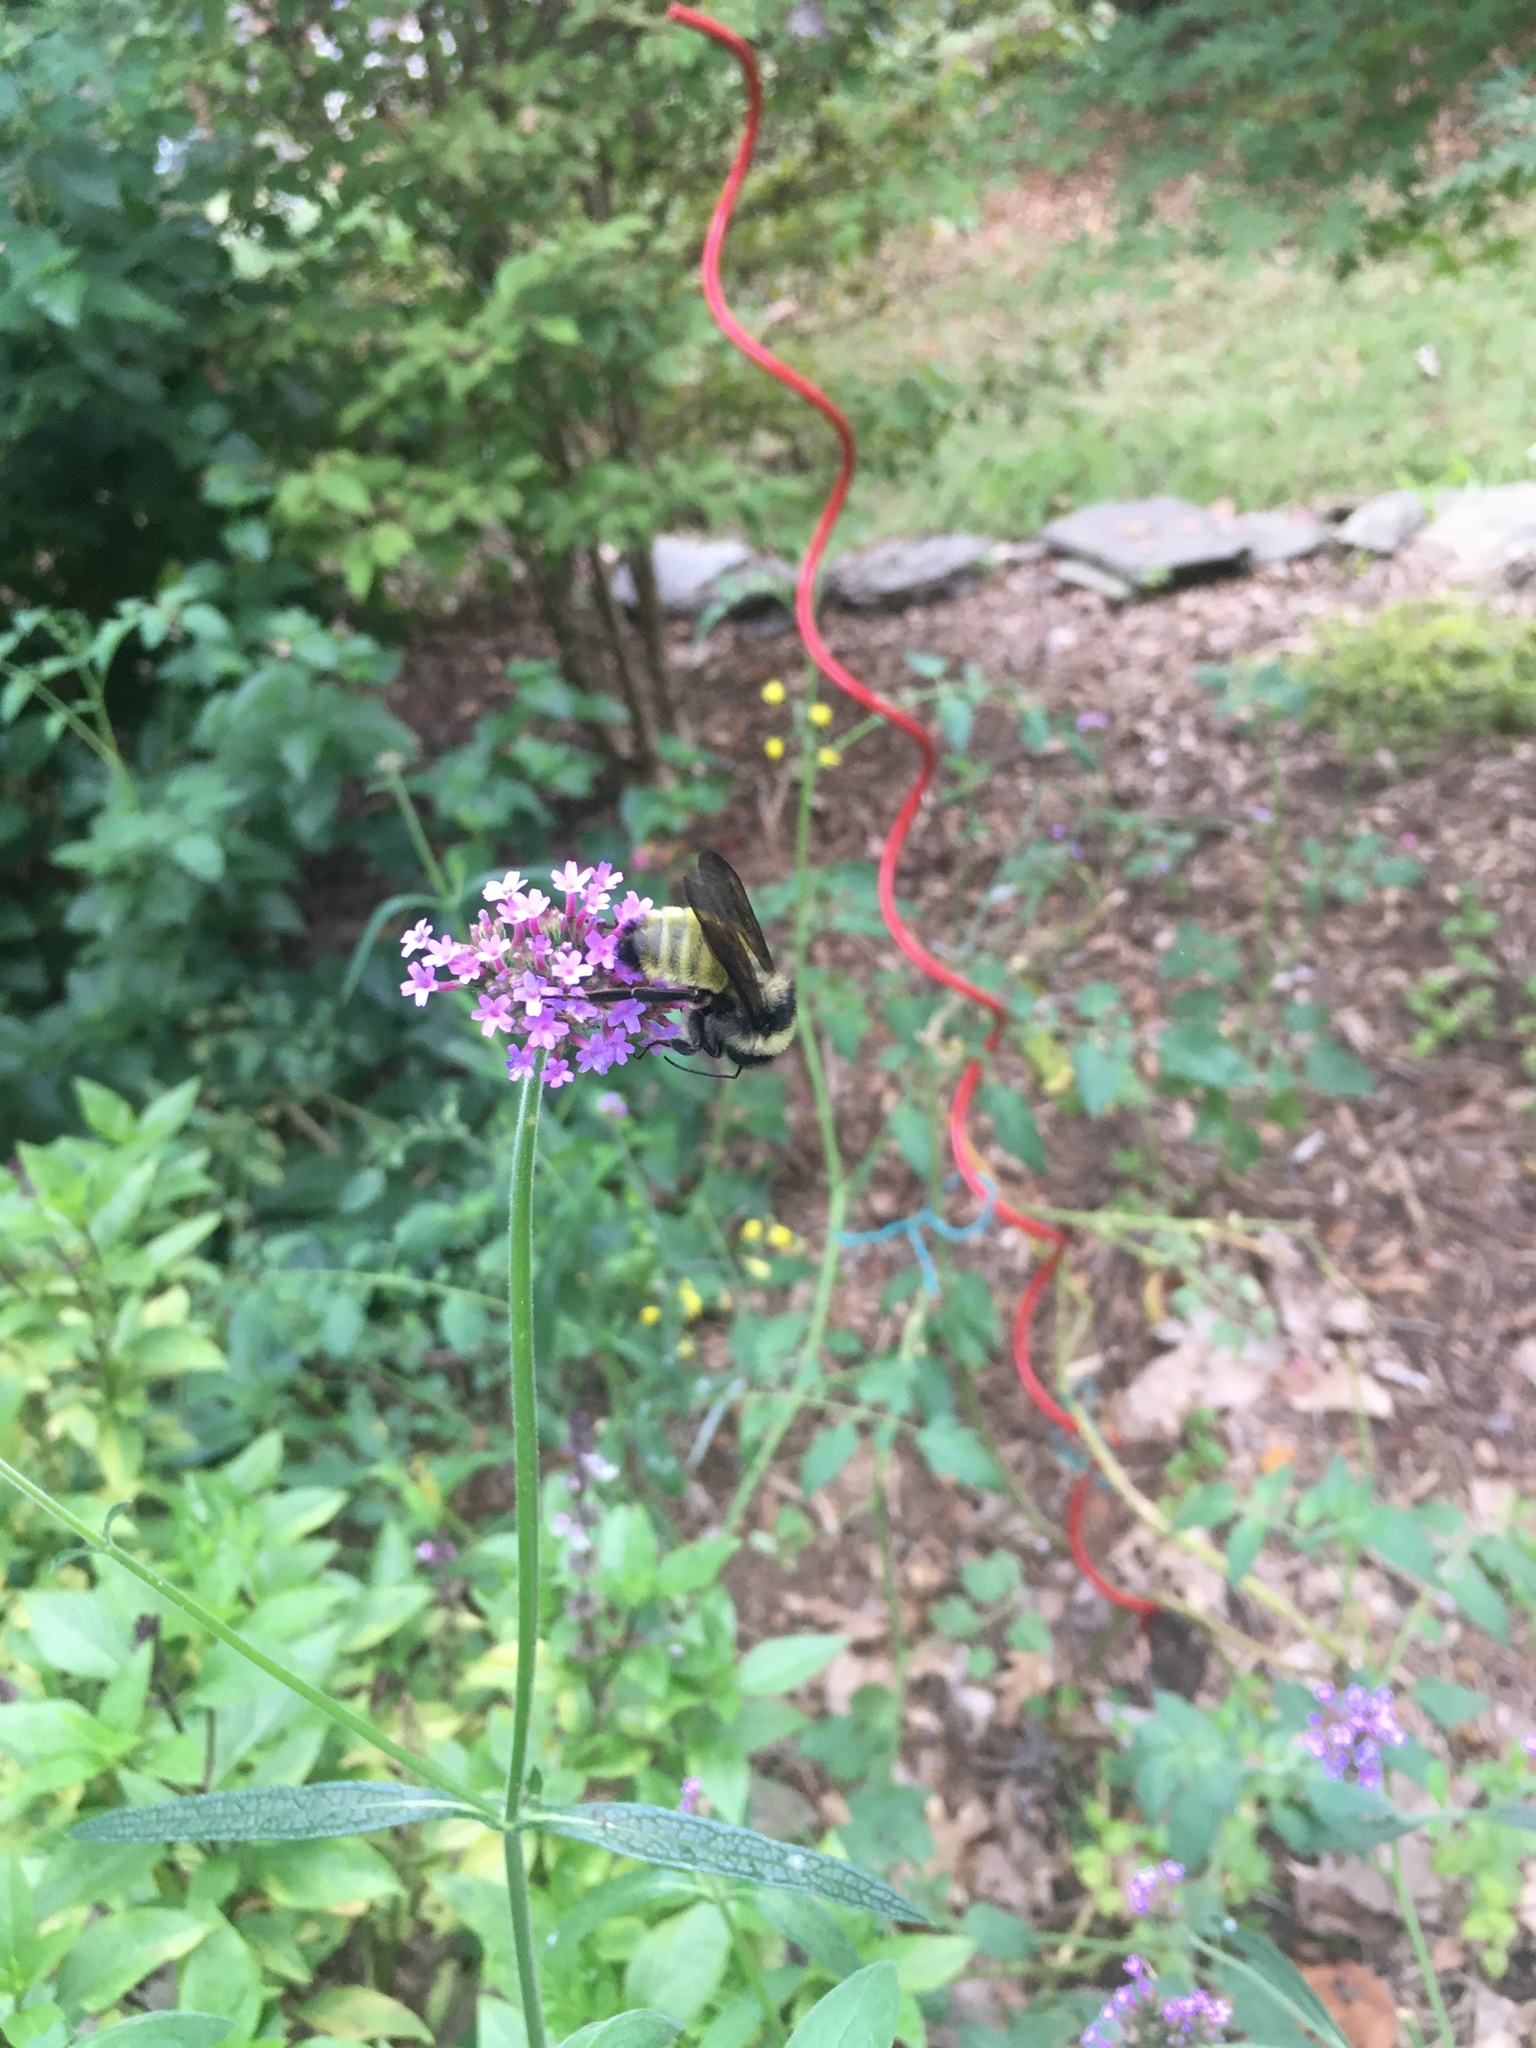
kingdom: Animalia
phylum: Arthropoda
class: Insecta
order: Hymenoptera
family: Apidae
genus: Bombus
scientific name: Bombus pensylvanicus
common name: Bumble bee
